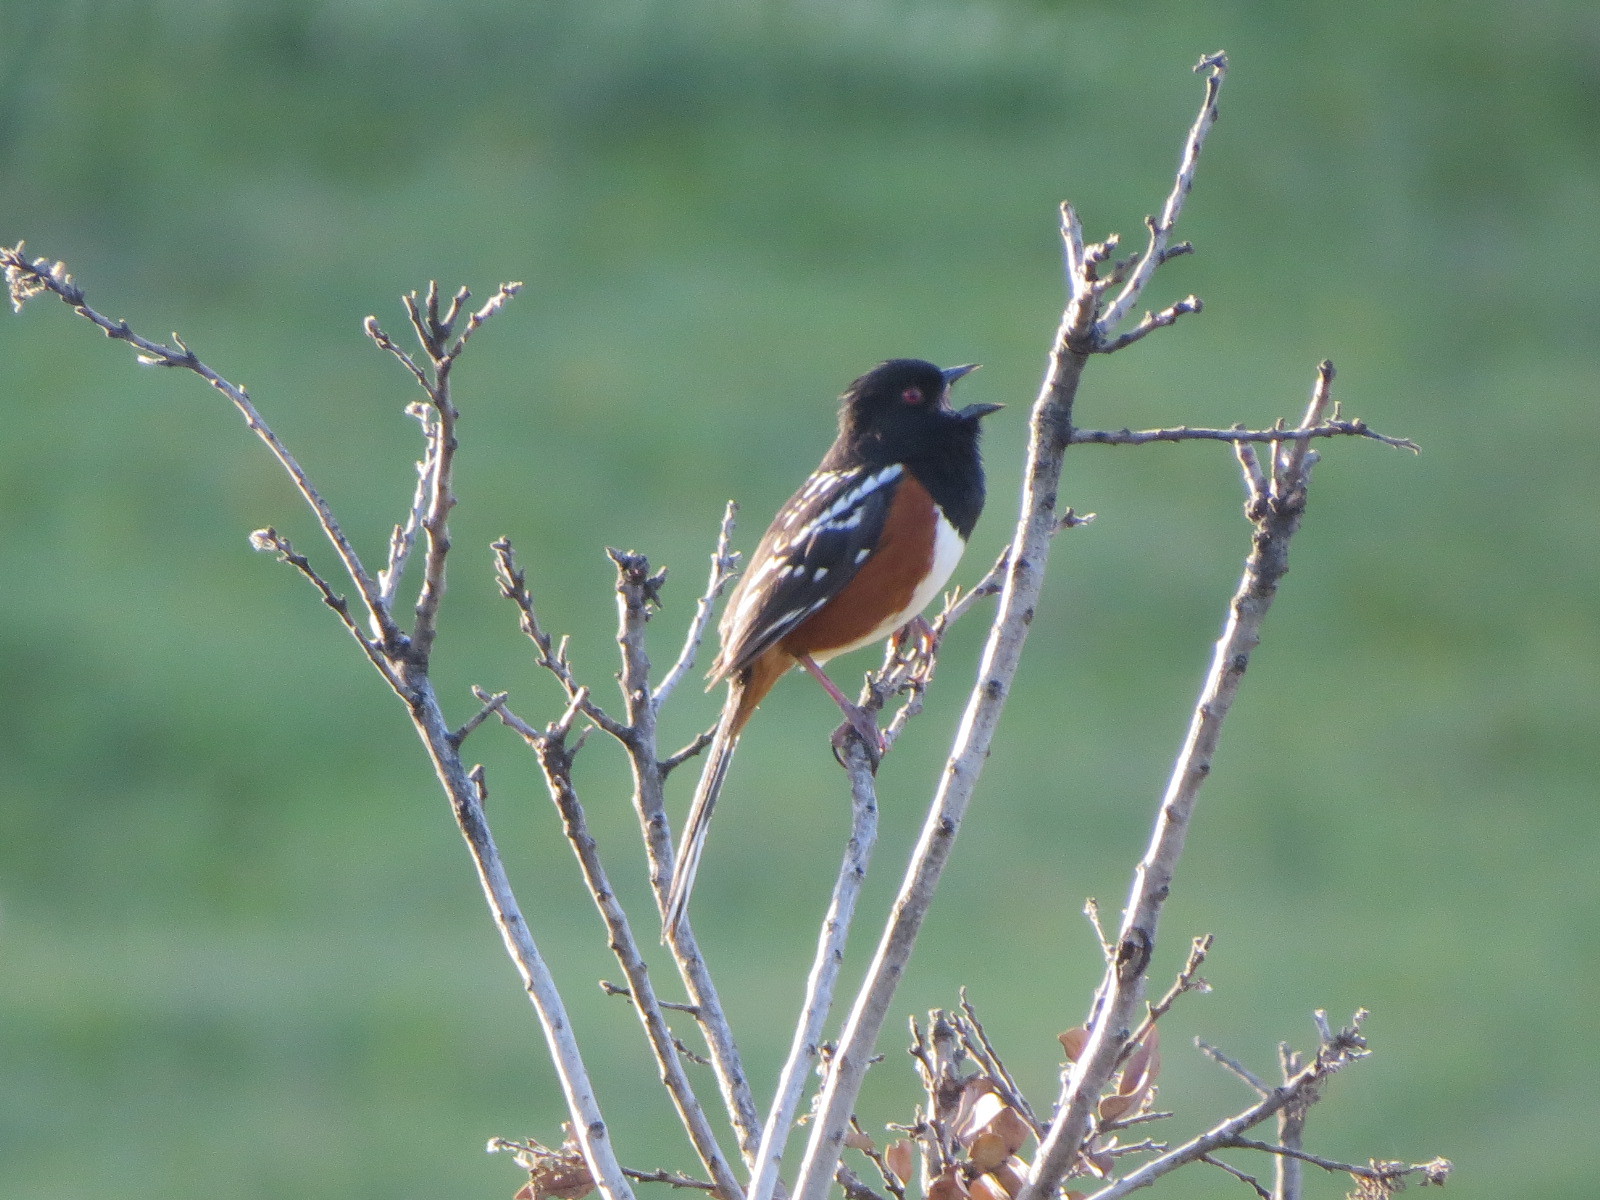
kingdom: Animalia
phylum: Chordata
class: Aves
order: Passeriformes
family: Passerellidae
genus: Pipilo
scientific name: Pipilo maculatus
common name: Spotted towhee
